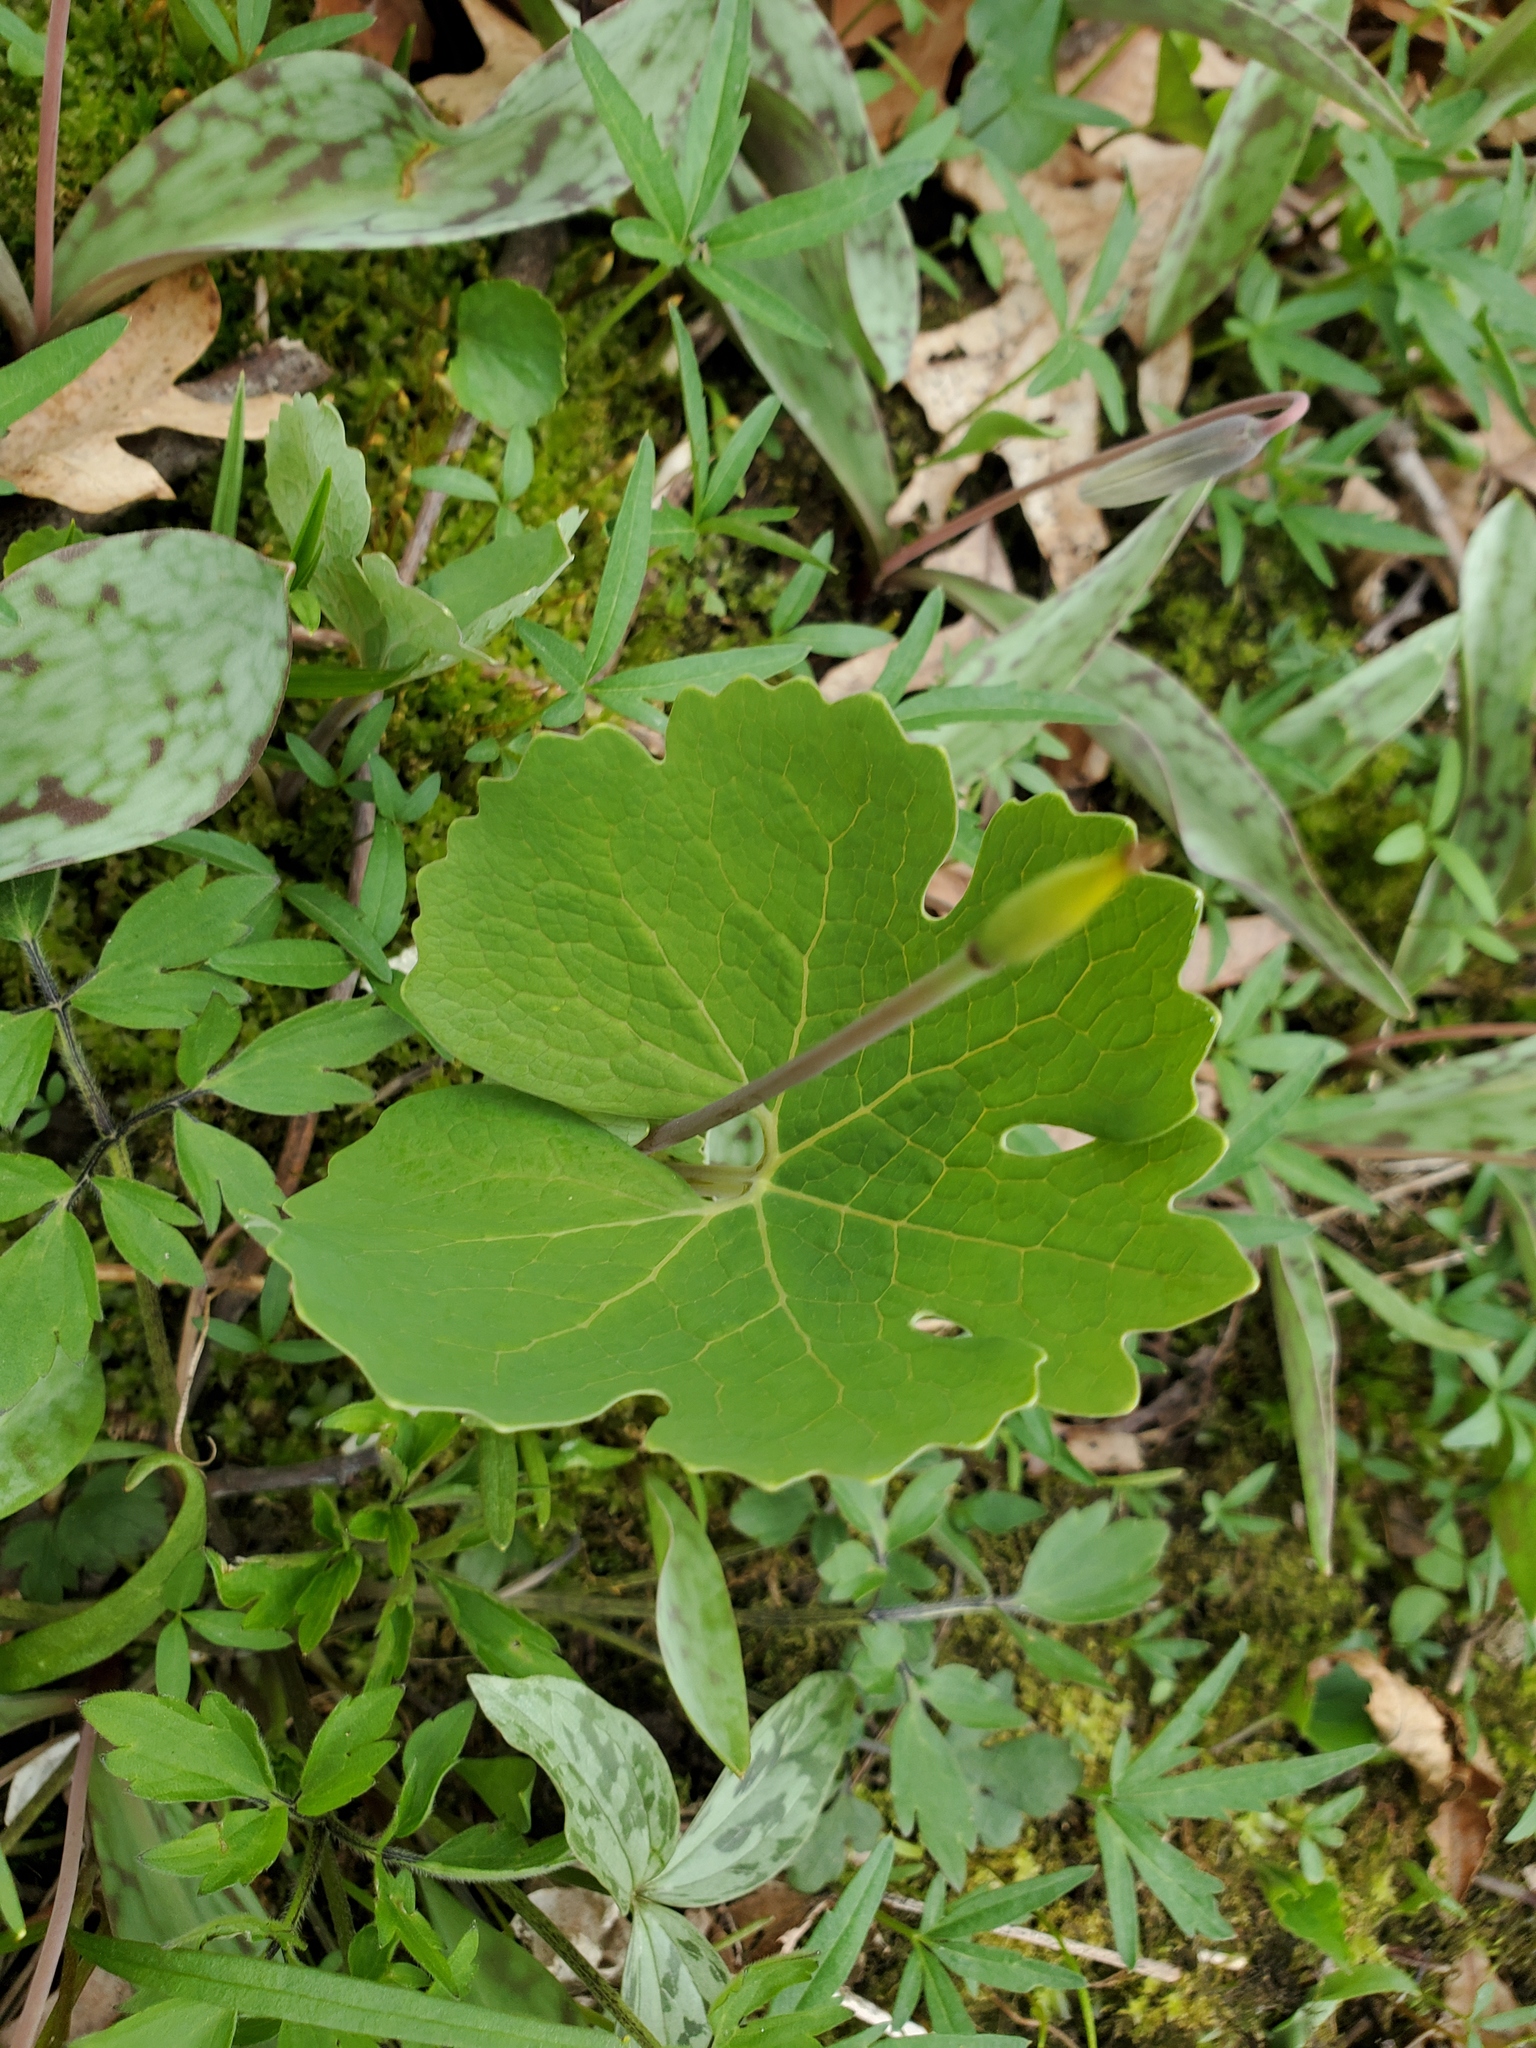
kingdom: Plantae
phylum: Tracheophyta
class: Magnoliopsida
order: Ranunculales
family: Papaveraceae
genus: Sanguinaria
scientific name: Sanguinaria canadensis
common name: Bloodroot
